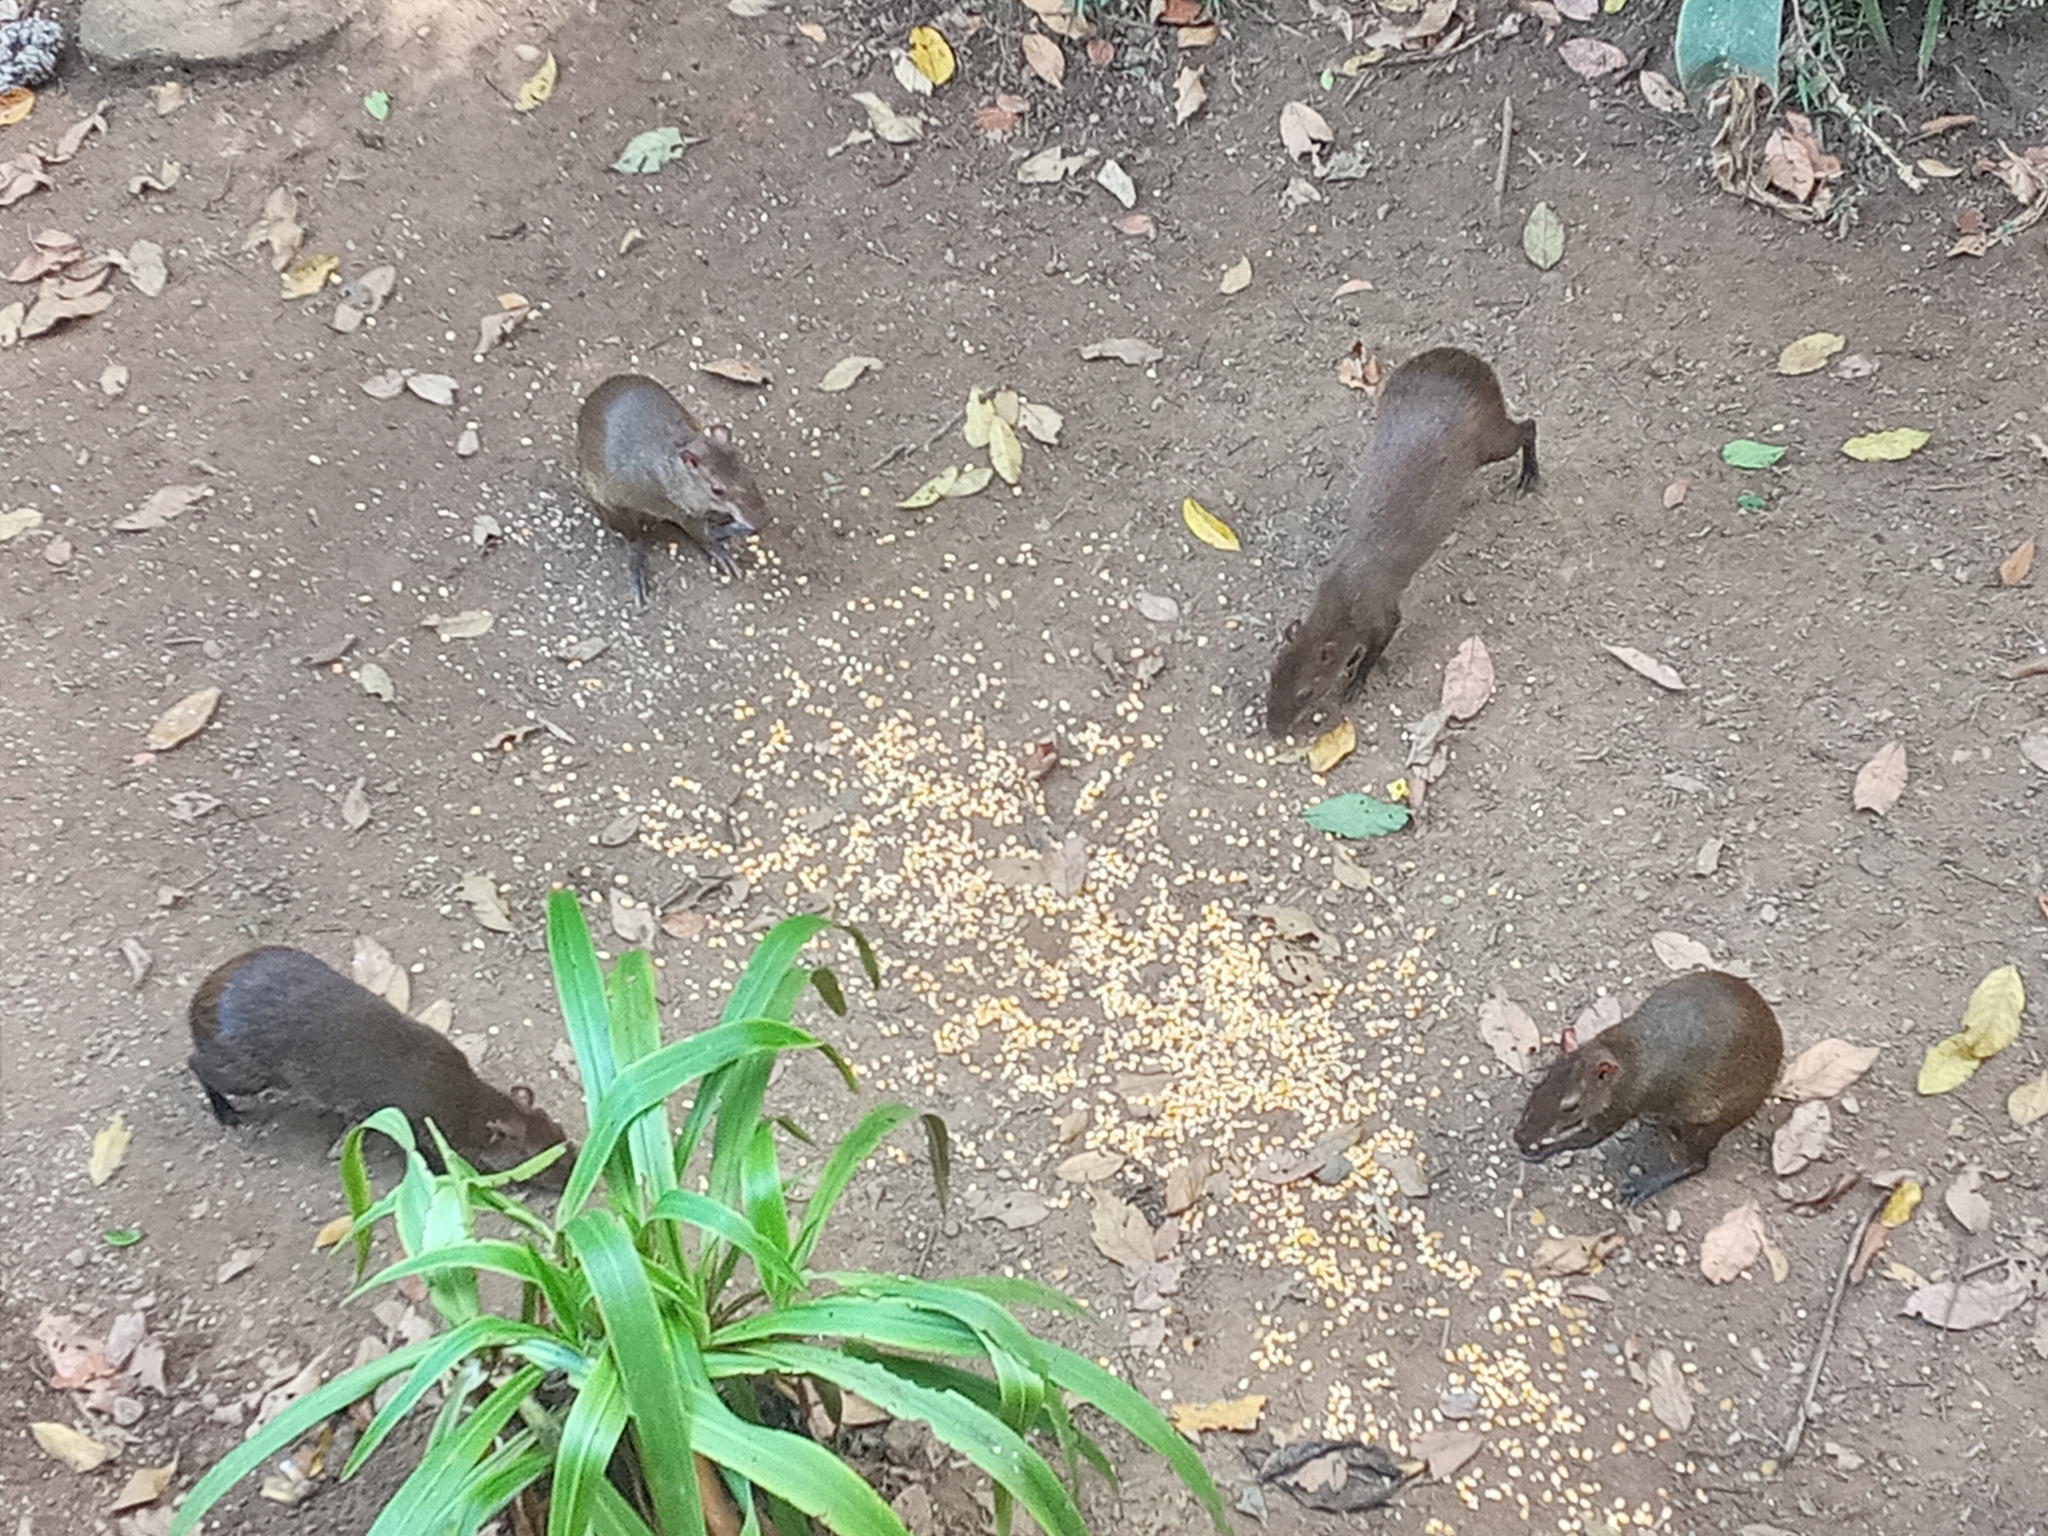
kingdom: Animalia
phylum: Chordata
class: Mammalia
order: Rodentia
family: Dasyproctidae
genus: Dasyprocta
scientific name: Dasyprocta punctata
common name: Central american agouti
